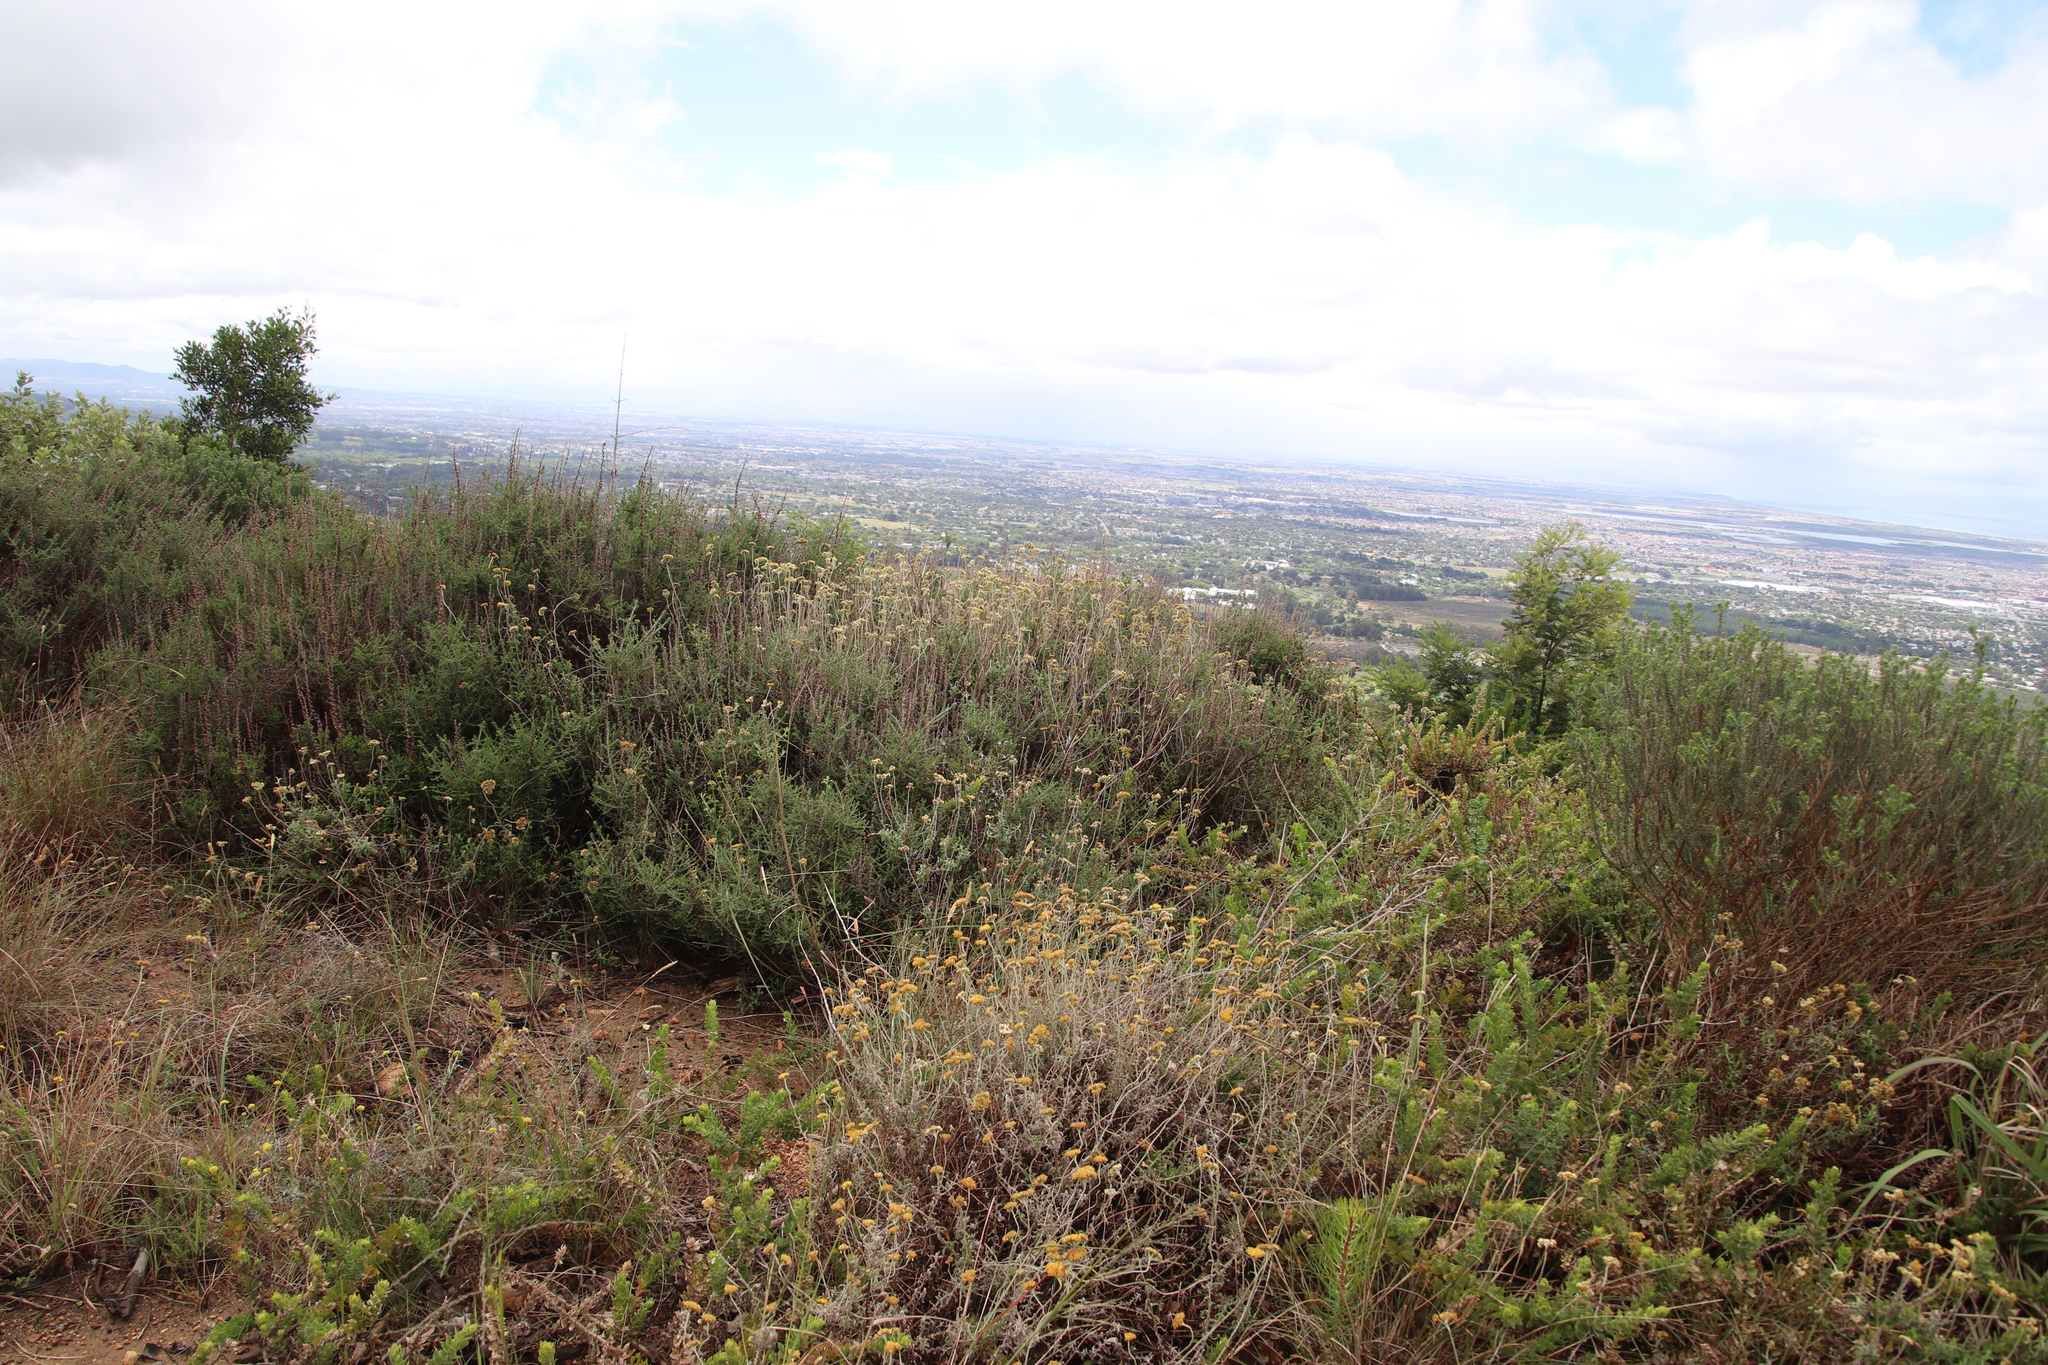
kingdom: Plantae
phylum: Tracheophyta
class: Magnoliopsida
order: Asterales
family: Asteraceae
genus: Helichrysum
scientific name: Helichrysum cymosum
